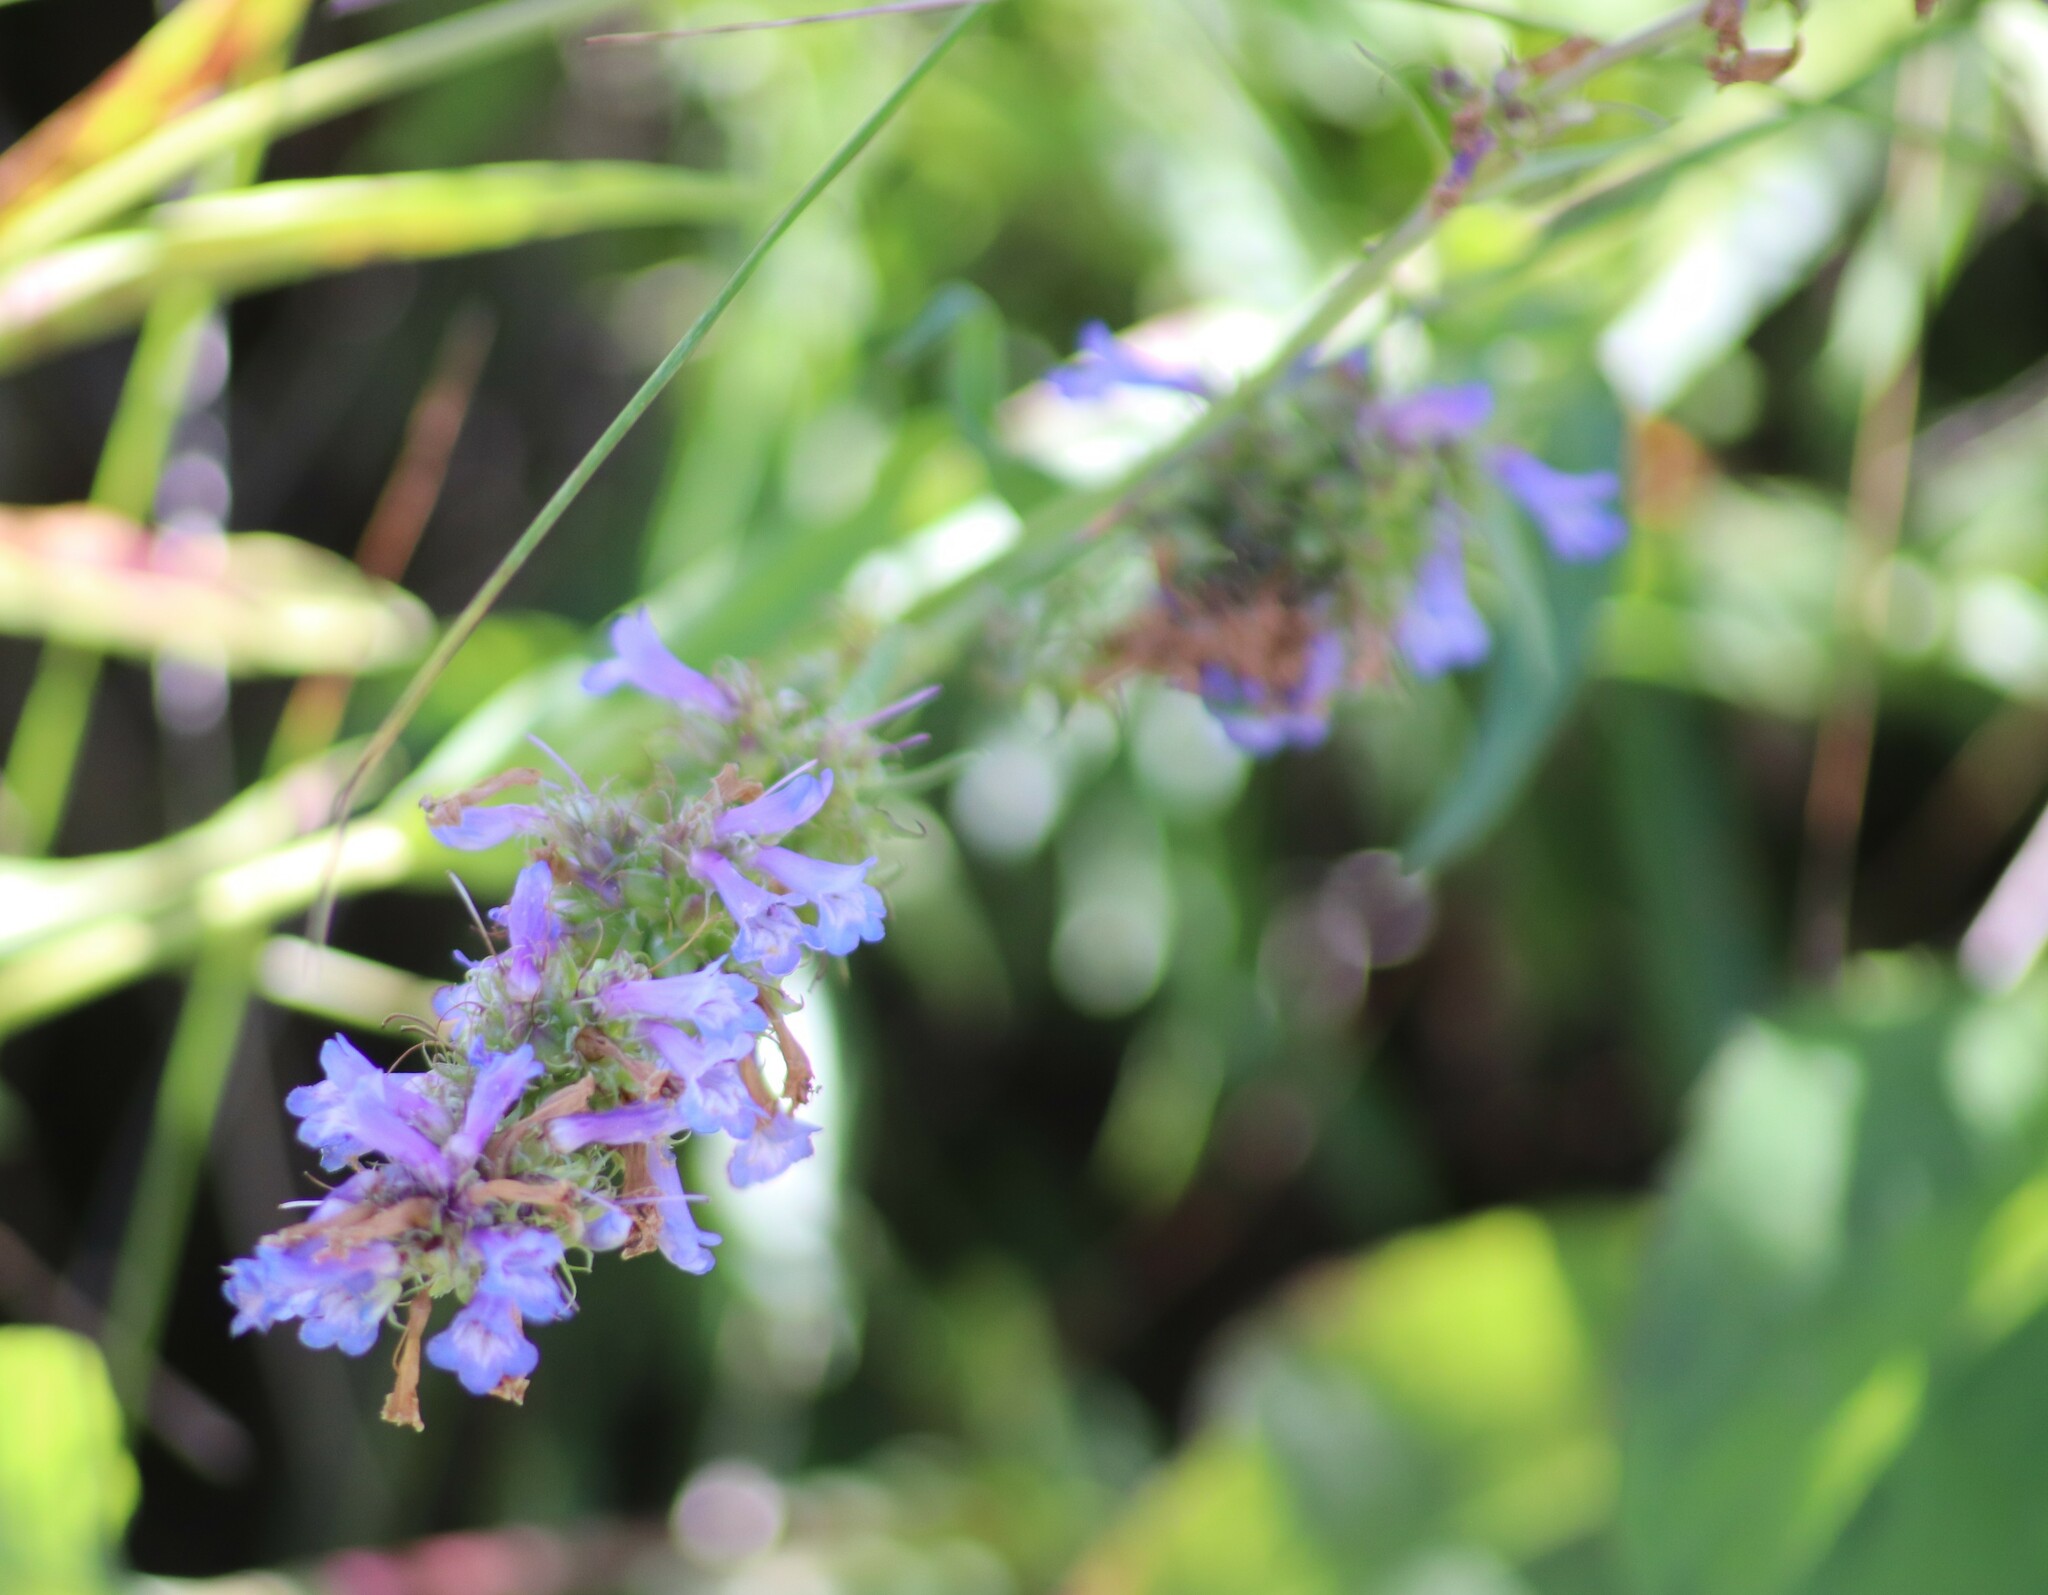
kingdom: Plantae
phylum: Tracheophyta
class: Magnoliopsida
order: Lamiales
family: Plantaginaceae
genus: Penstemon
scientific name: Penstemon procerus
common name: Small-flower penstemon
